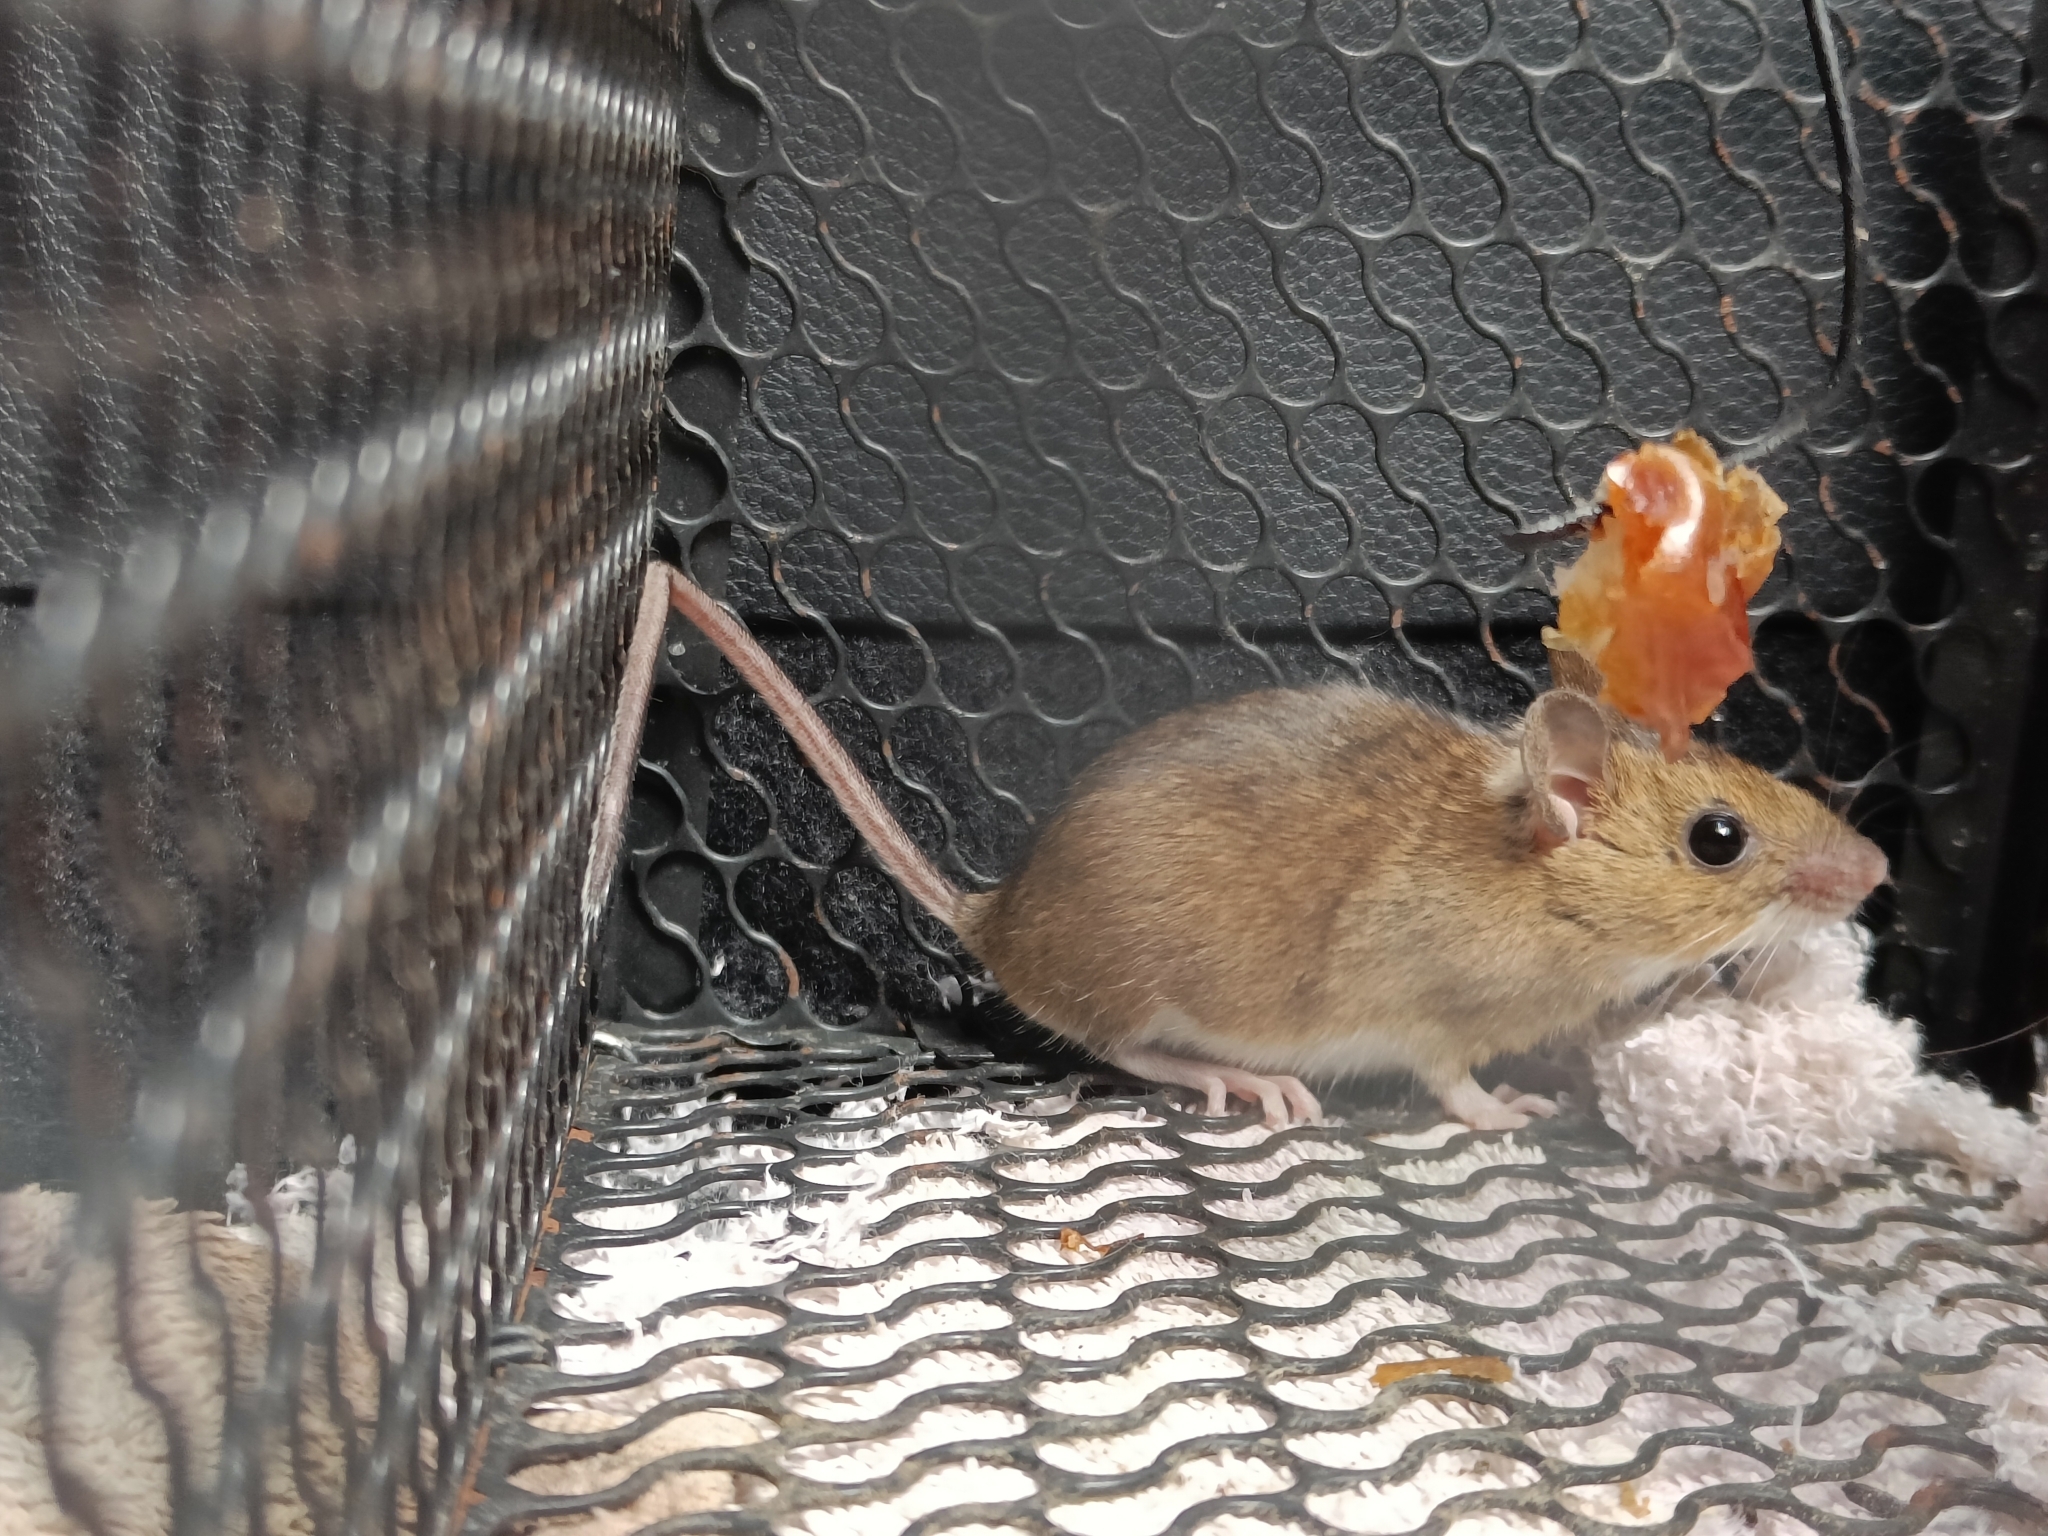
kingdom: Animalia
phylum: Chordata
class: Mammalia
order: Rodentia
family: Muridae
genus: Apodemus
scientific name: Apodemus flavicollis
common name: Yellow-necked field mouse
